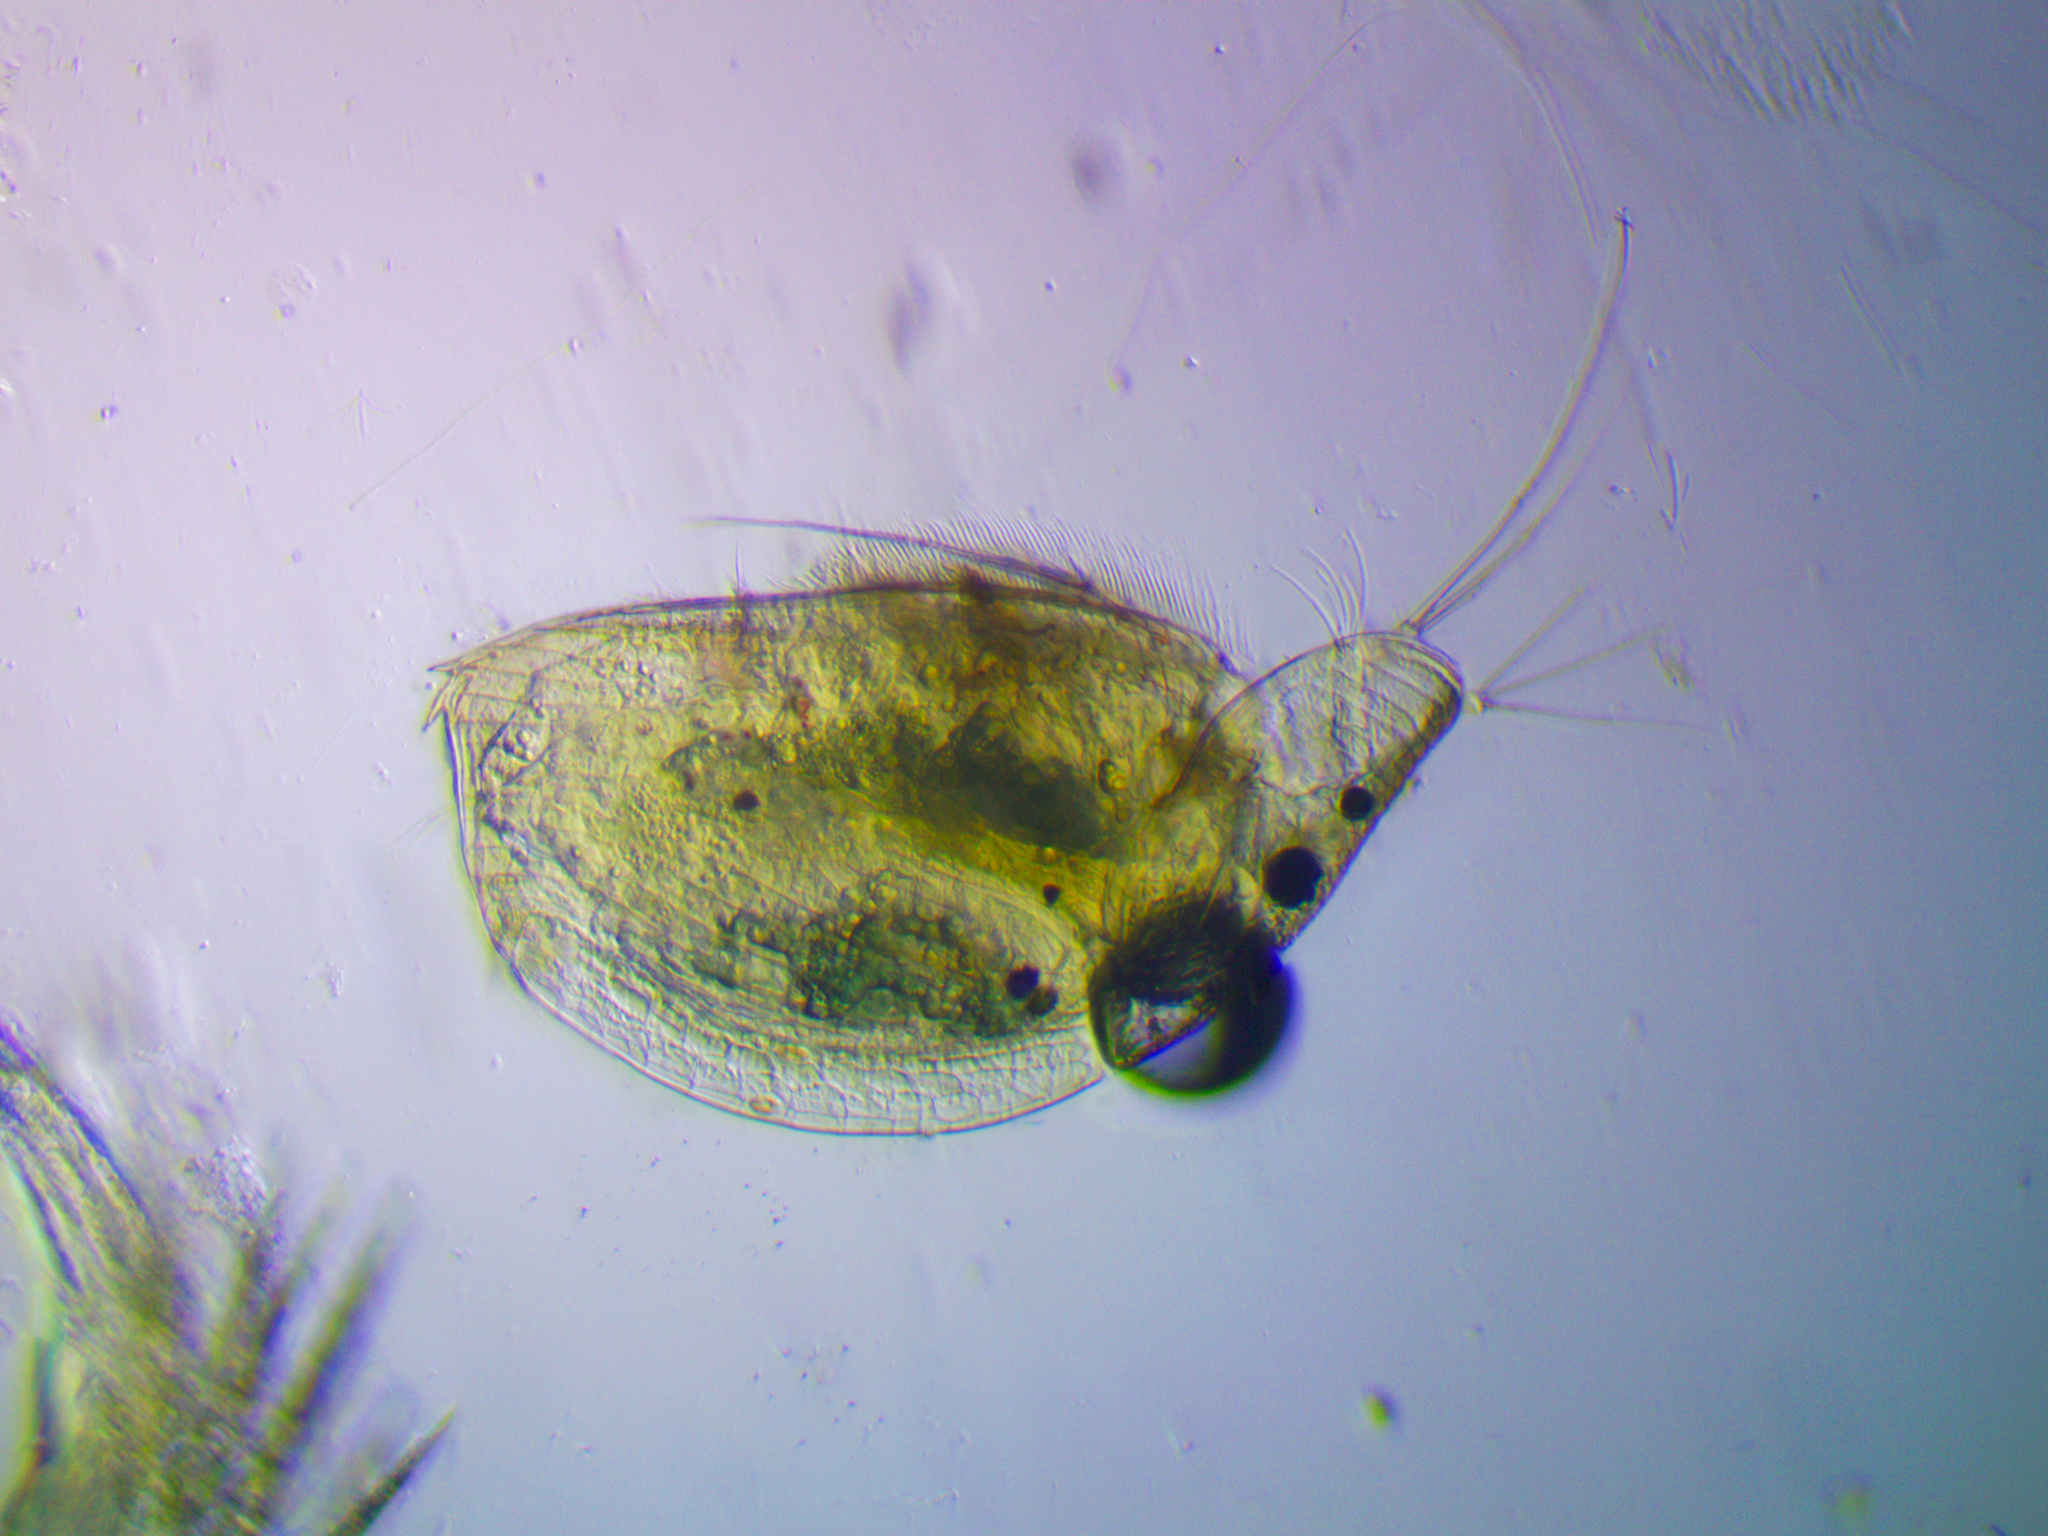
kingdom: Animalia
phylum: Arthropoda
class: Branchiopoda
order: Diplostraca
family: Chydoridae
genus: Graptoleberis
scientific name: Graptoleberis testudinaria
